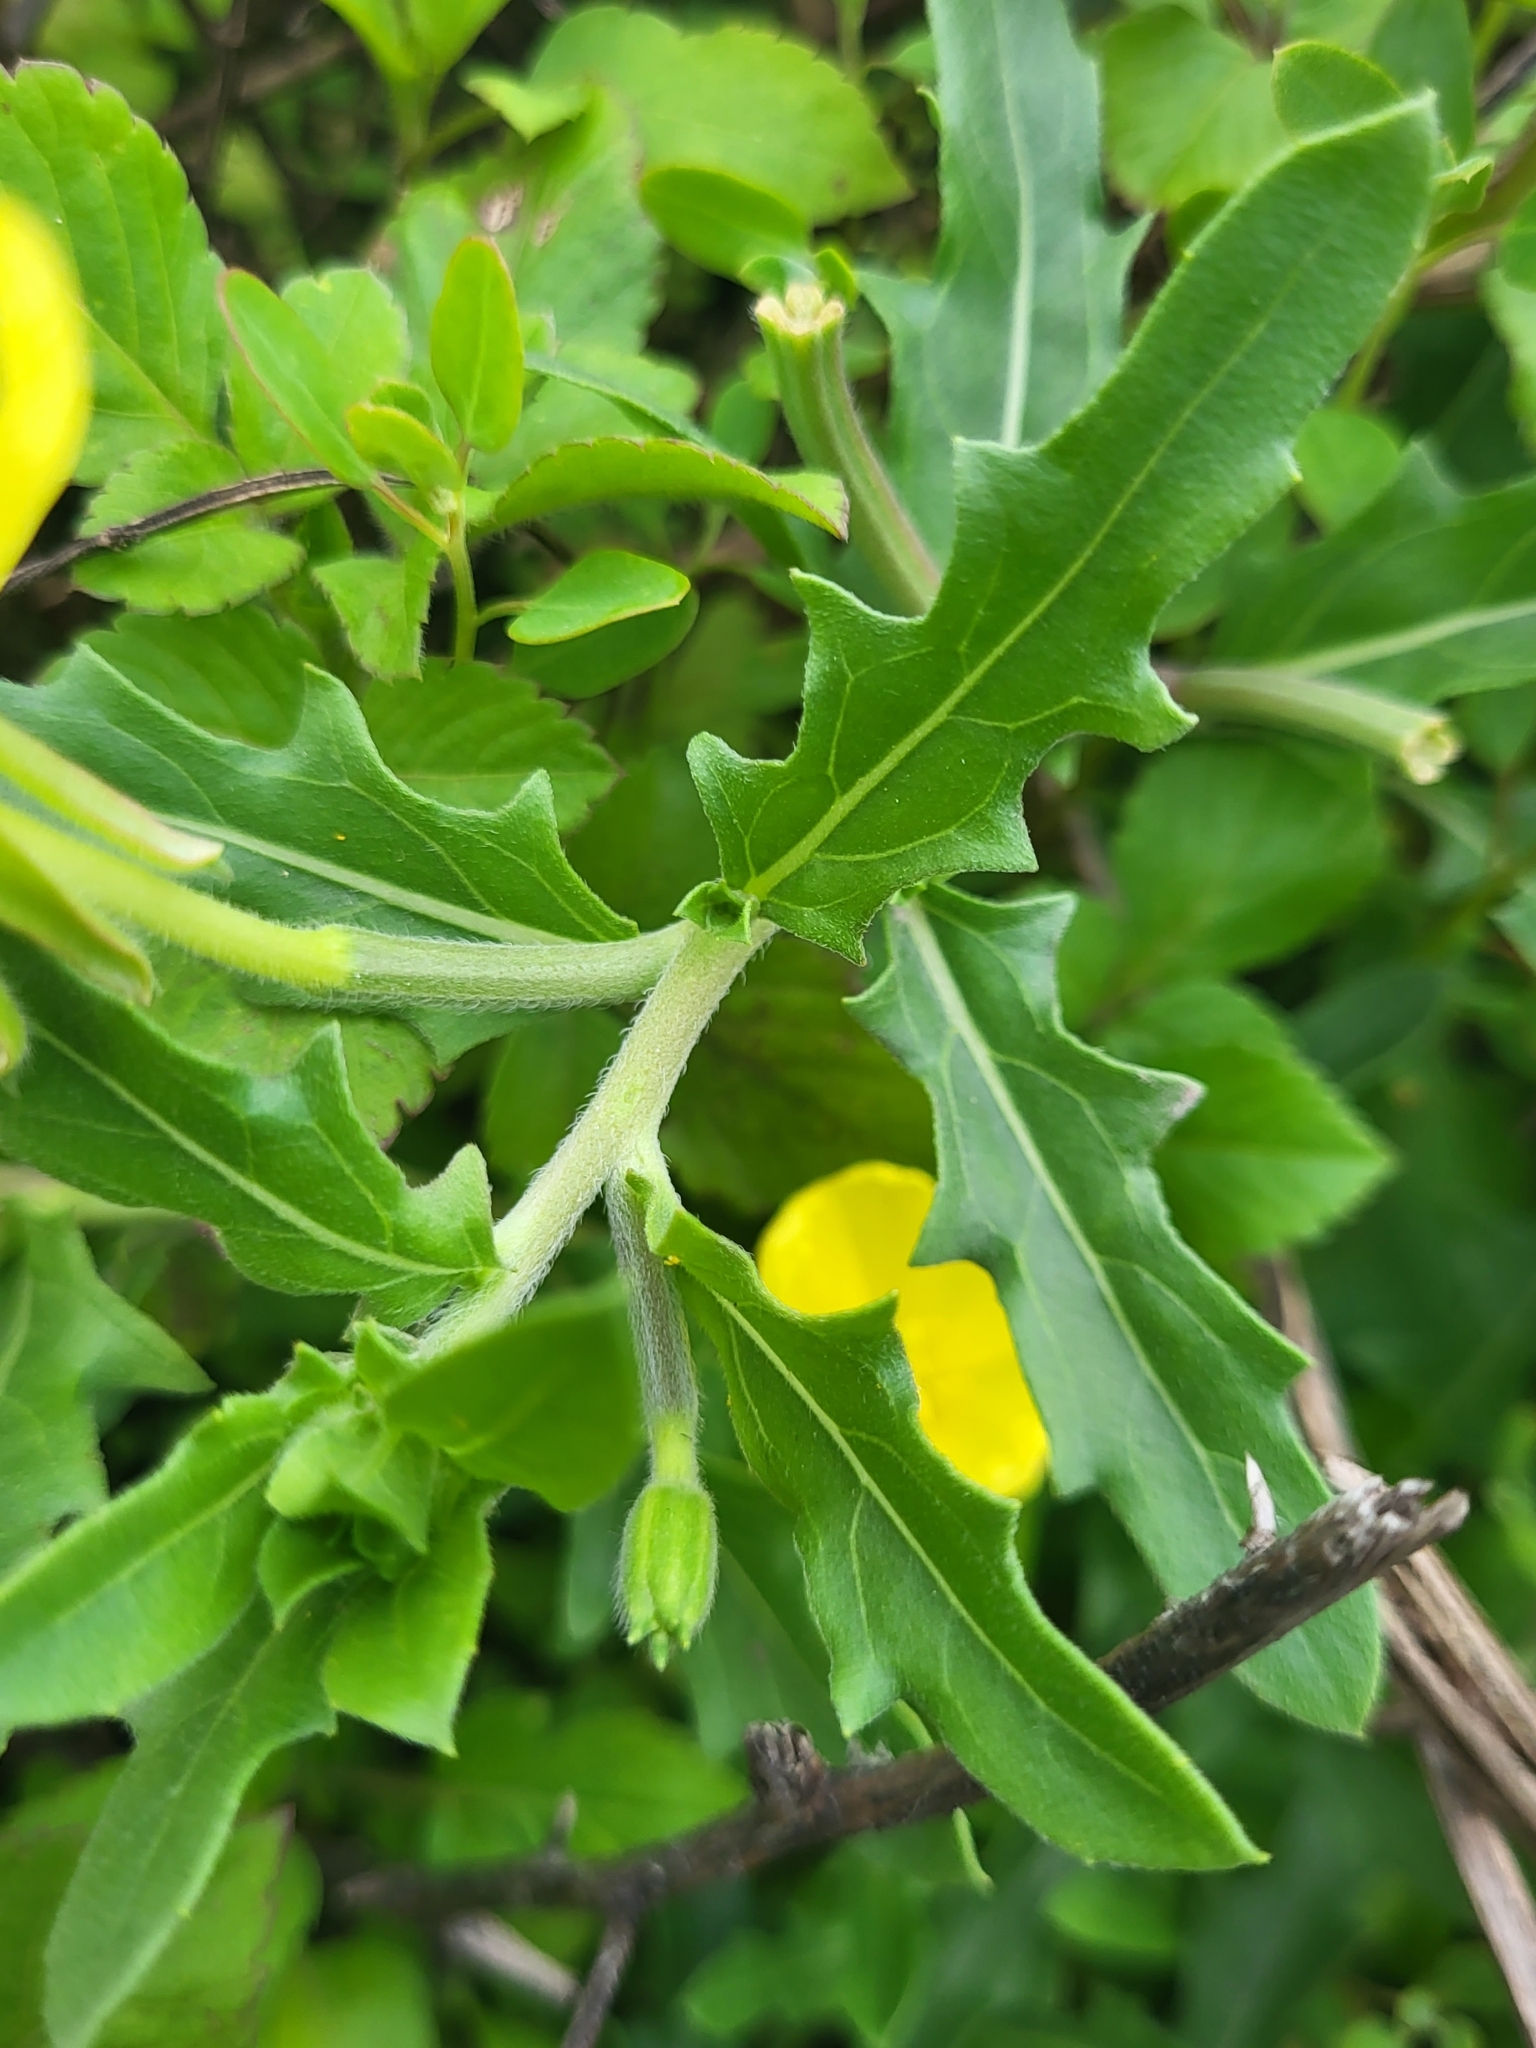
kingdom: Plantae
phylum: Tracheophyta
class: Magnoliopsida
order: Myrtales
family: Onagraceae
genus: Oenothera
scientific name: Oenothera laciniata
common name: Cut-leaved evening-primrose
